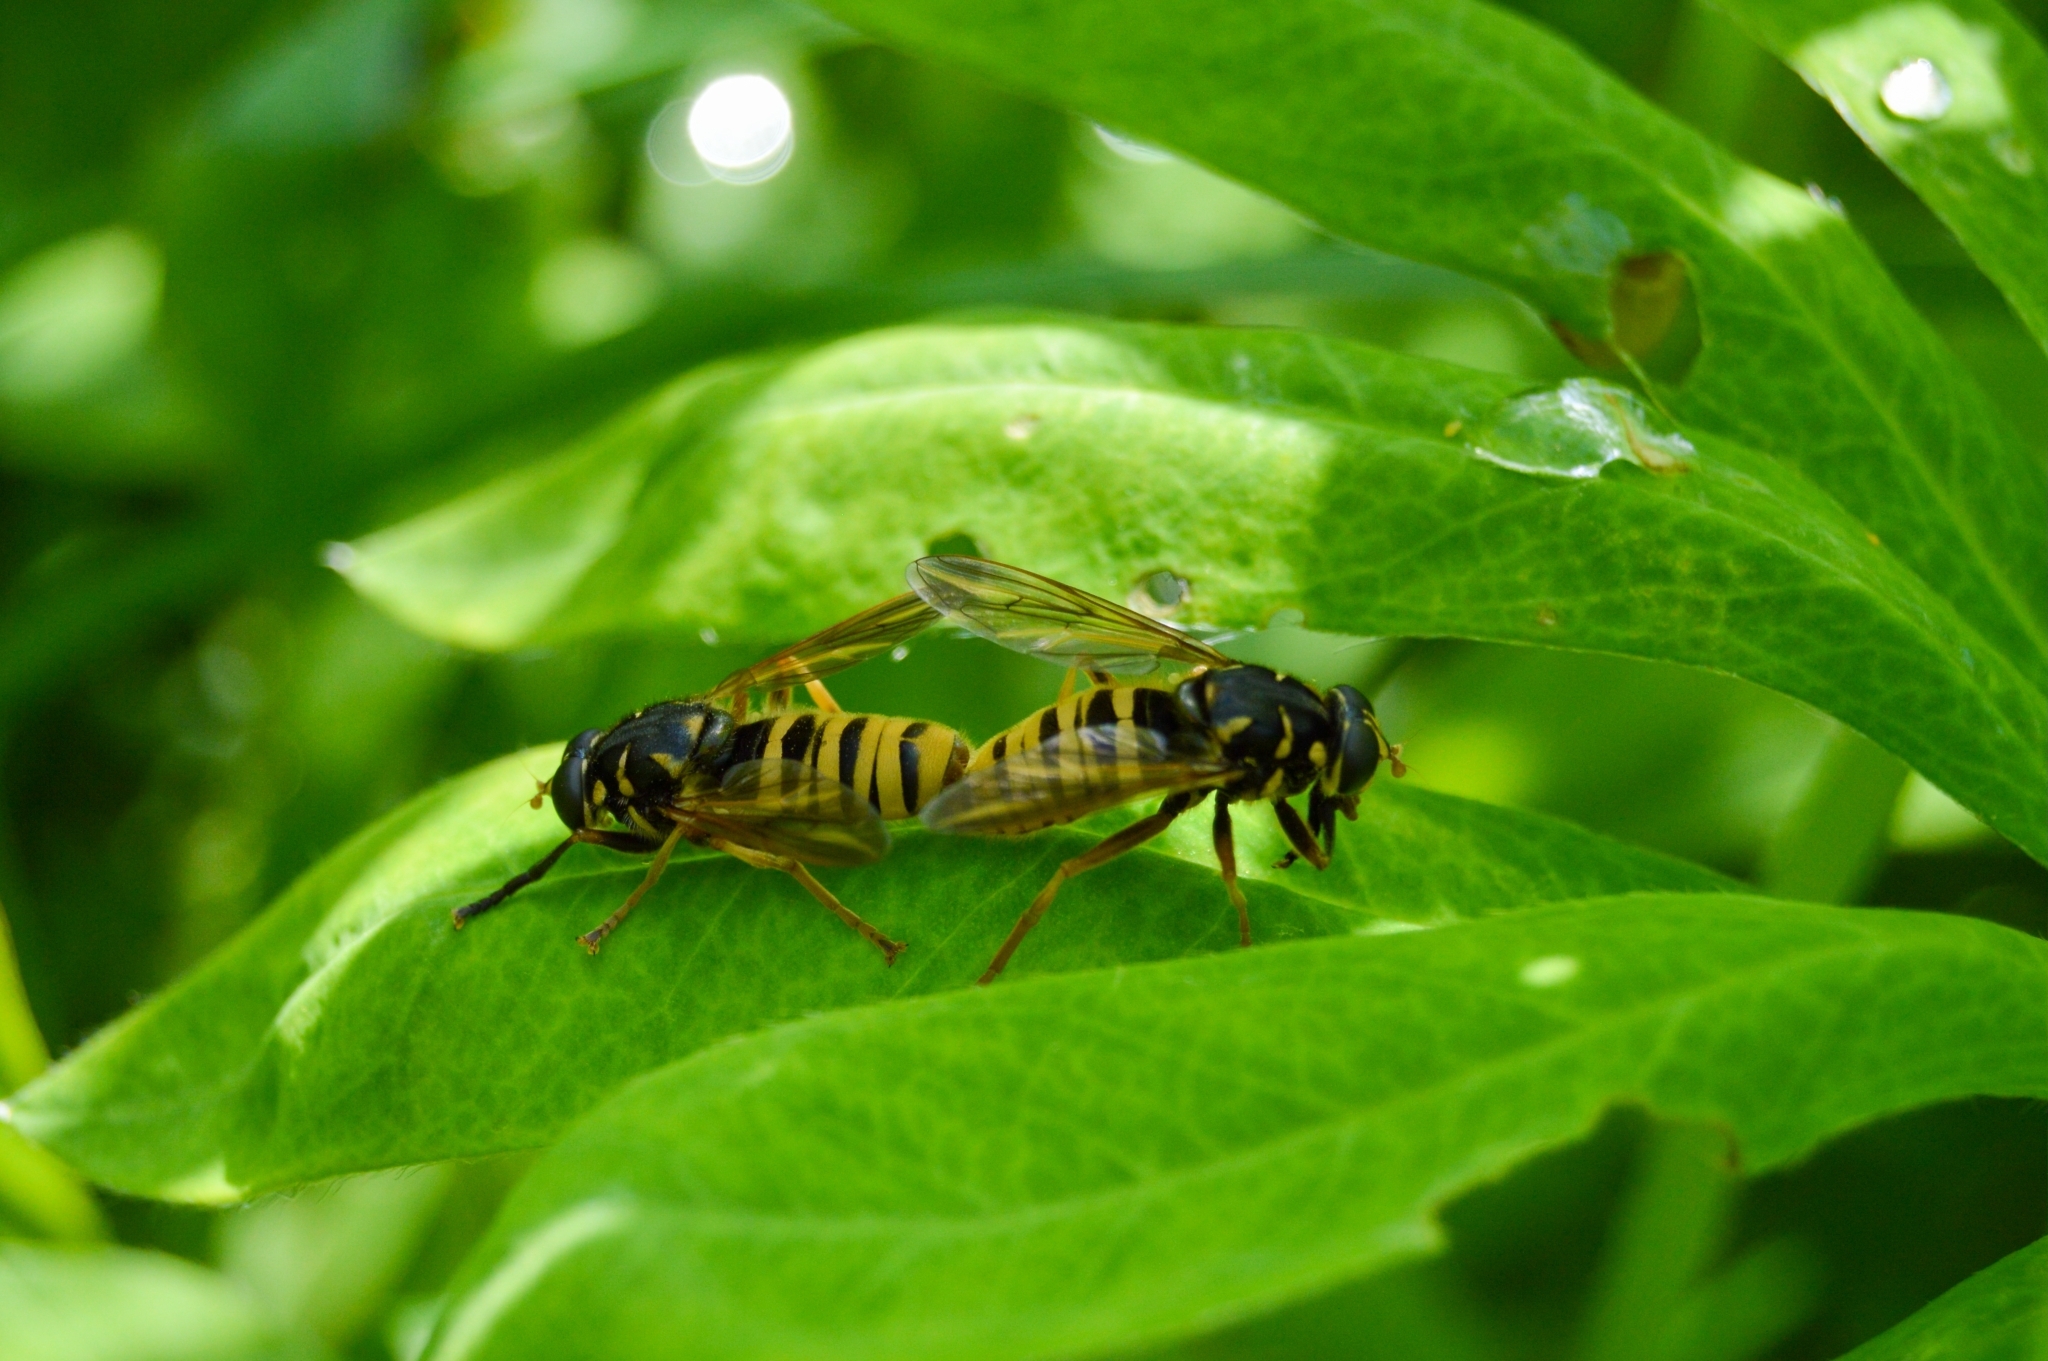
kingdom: Animalia
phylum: Arthropoda
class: Insecta
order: Diptera
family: Syrphidae
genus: Temnostoma
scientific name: Temnostoma vespiforme
